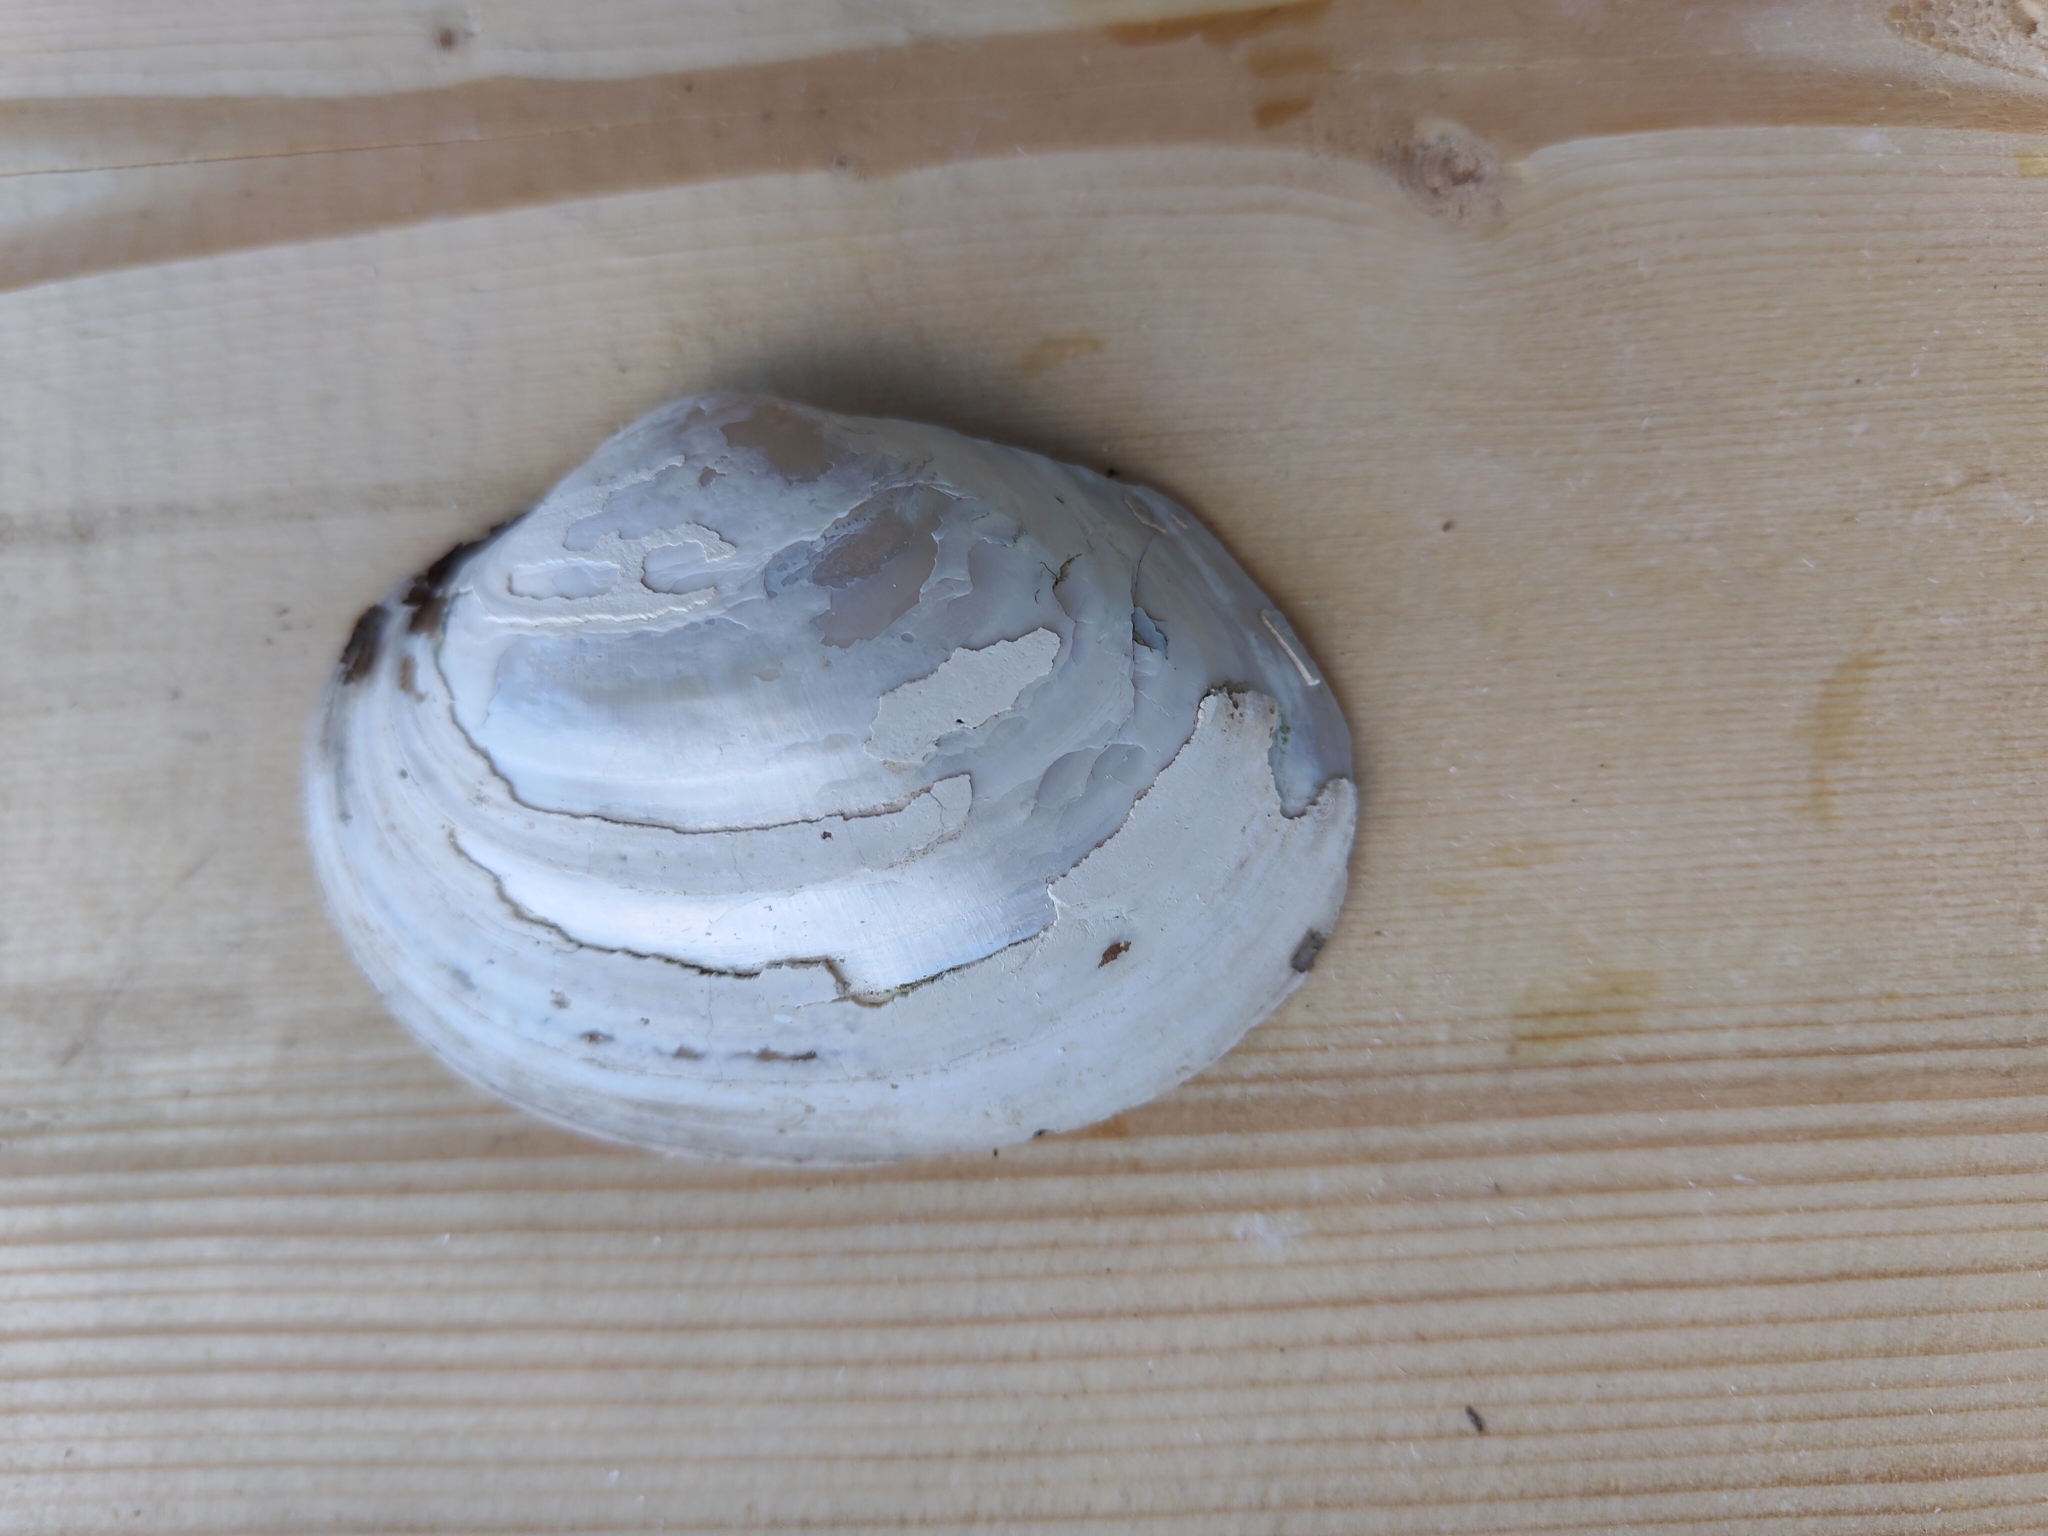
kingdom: Animalia
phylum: Mollusca
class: Bivalvia
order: Unionida
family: Unionidae
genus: Lampsilis
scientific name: Lampsilis cardium
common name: Plain pocketbook
